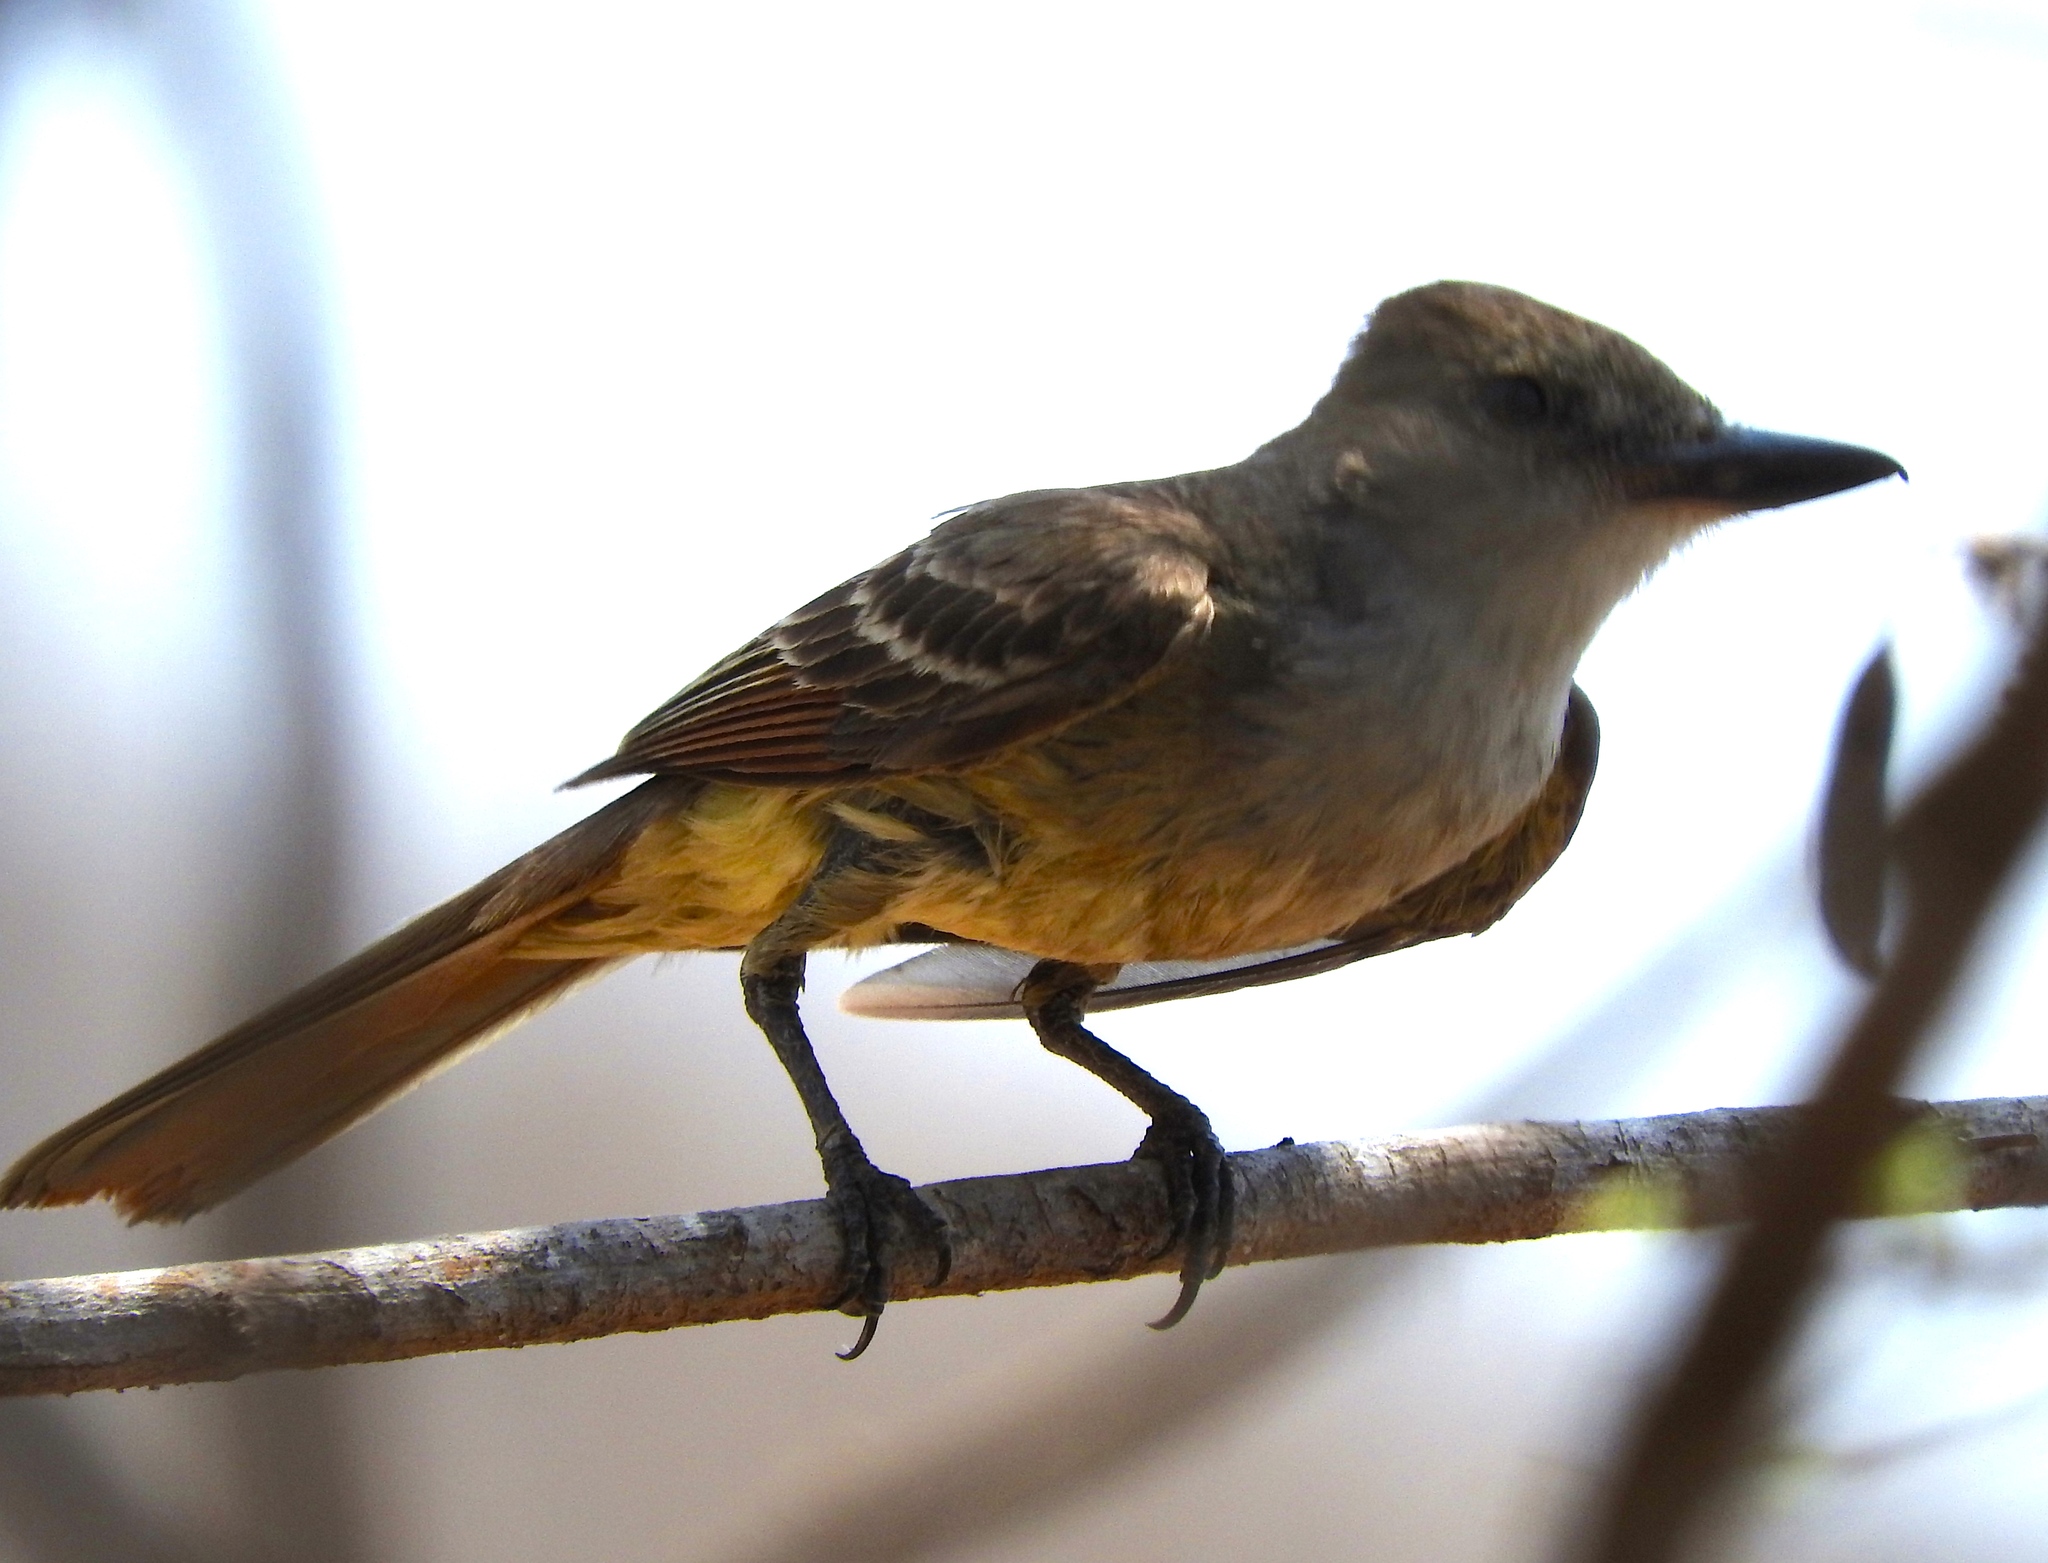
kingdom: Animalia
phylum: Chordata
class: Aves
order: Passeriformes
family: Tyrannidae
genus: Myiarchus
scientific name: Myiarchus tyrannulus
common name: Brown-crested flycatcher
